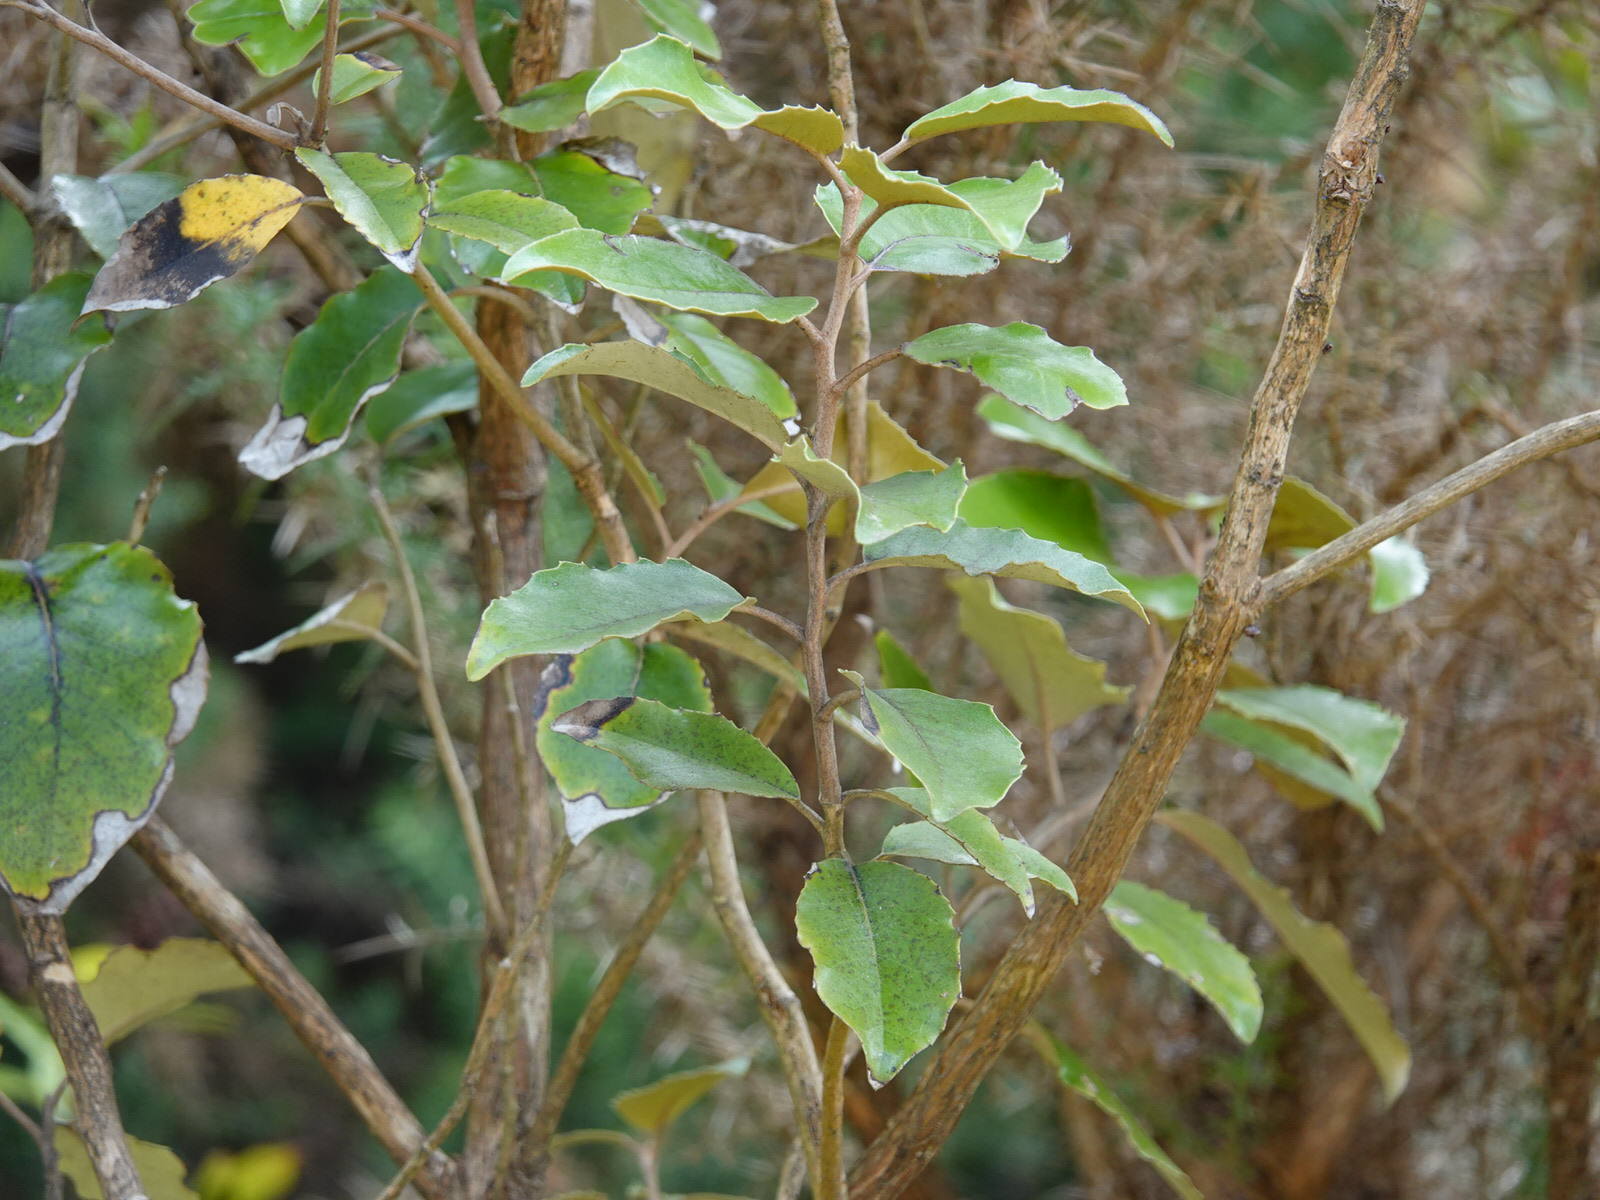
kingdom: Plantae
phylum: Tracheophyta
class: Magnoliopsida
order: Asterales
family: Asteraceae
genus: Olearia
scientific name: Olearia furfuracea
